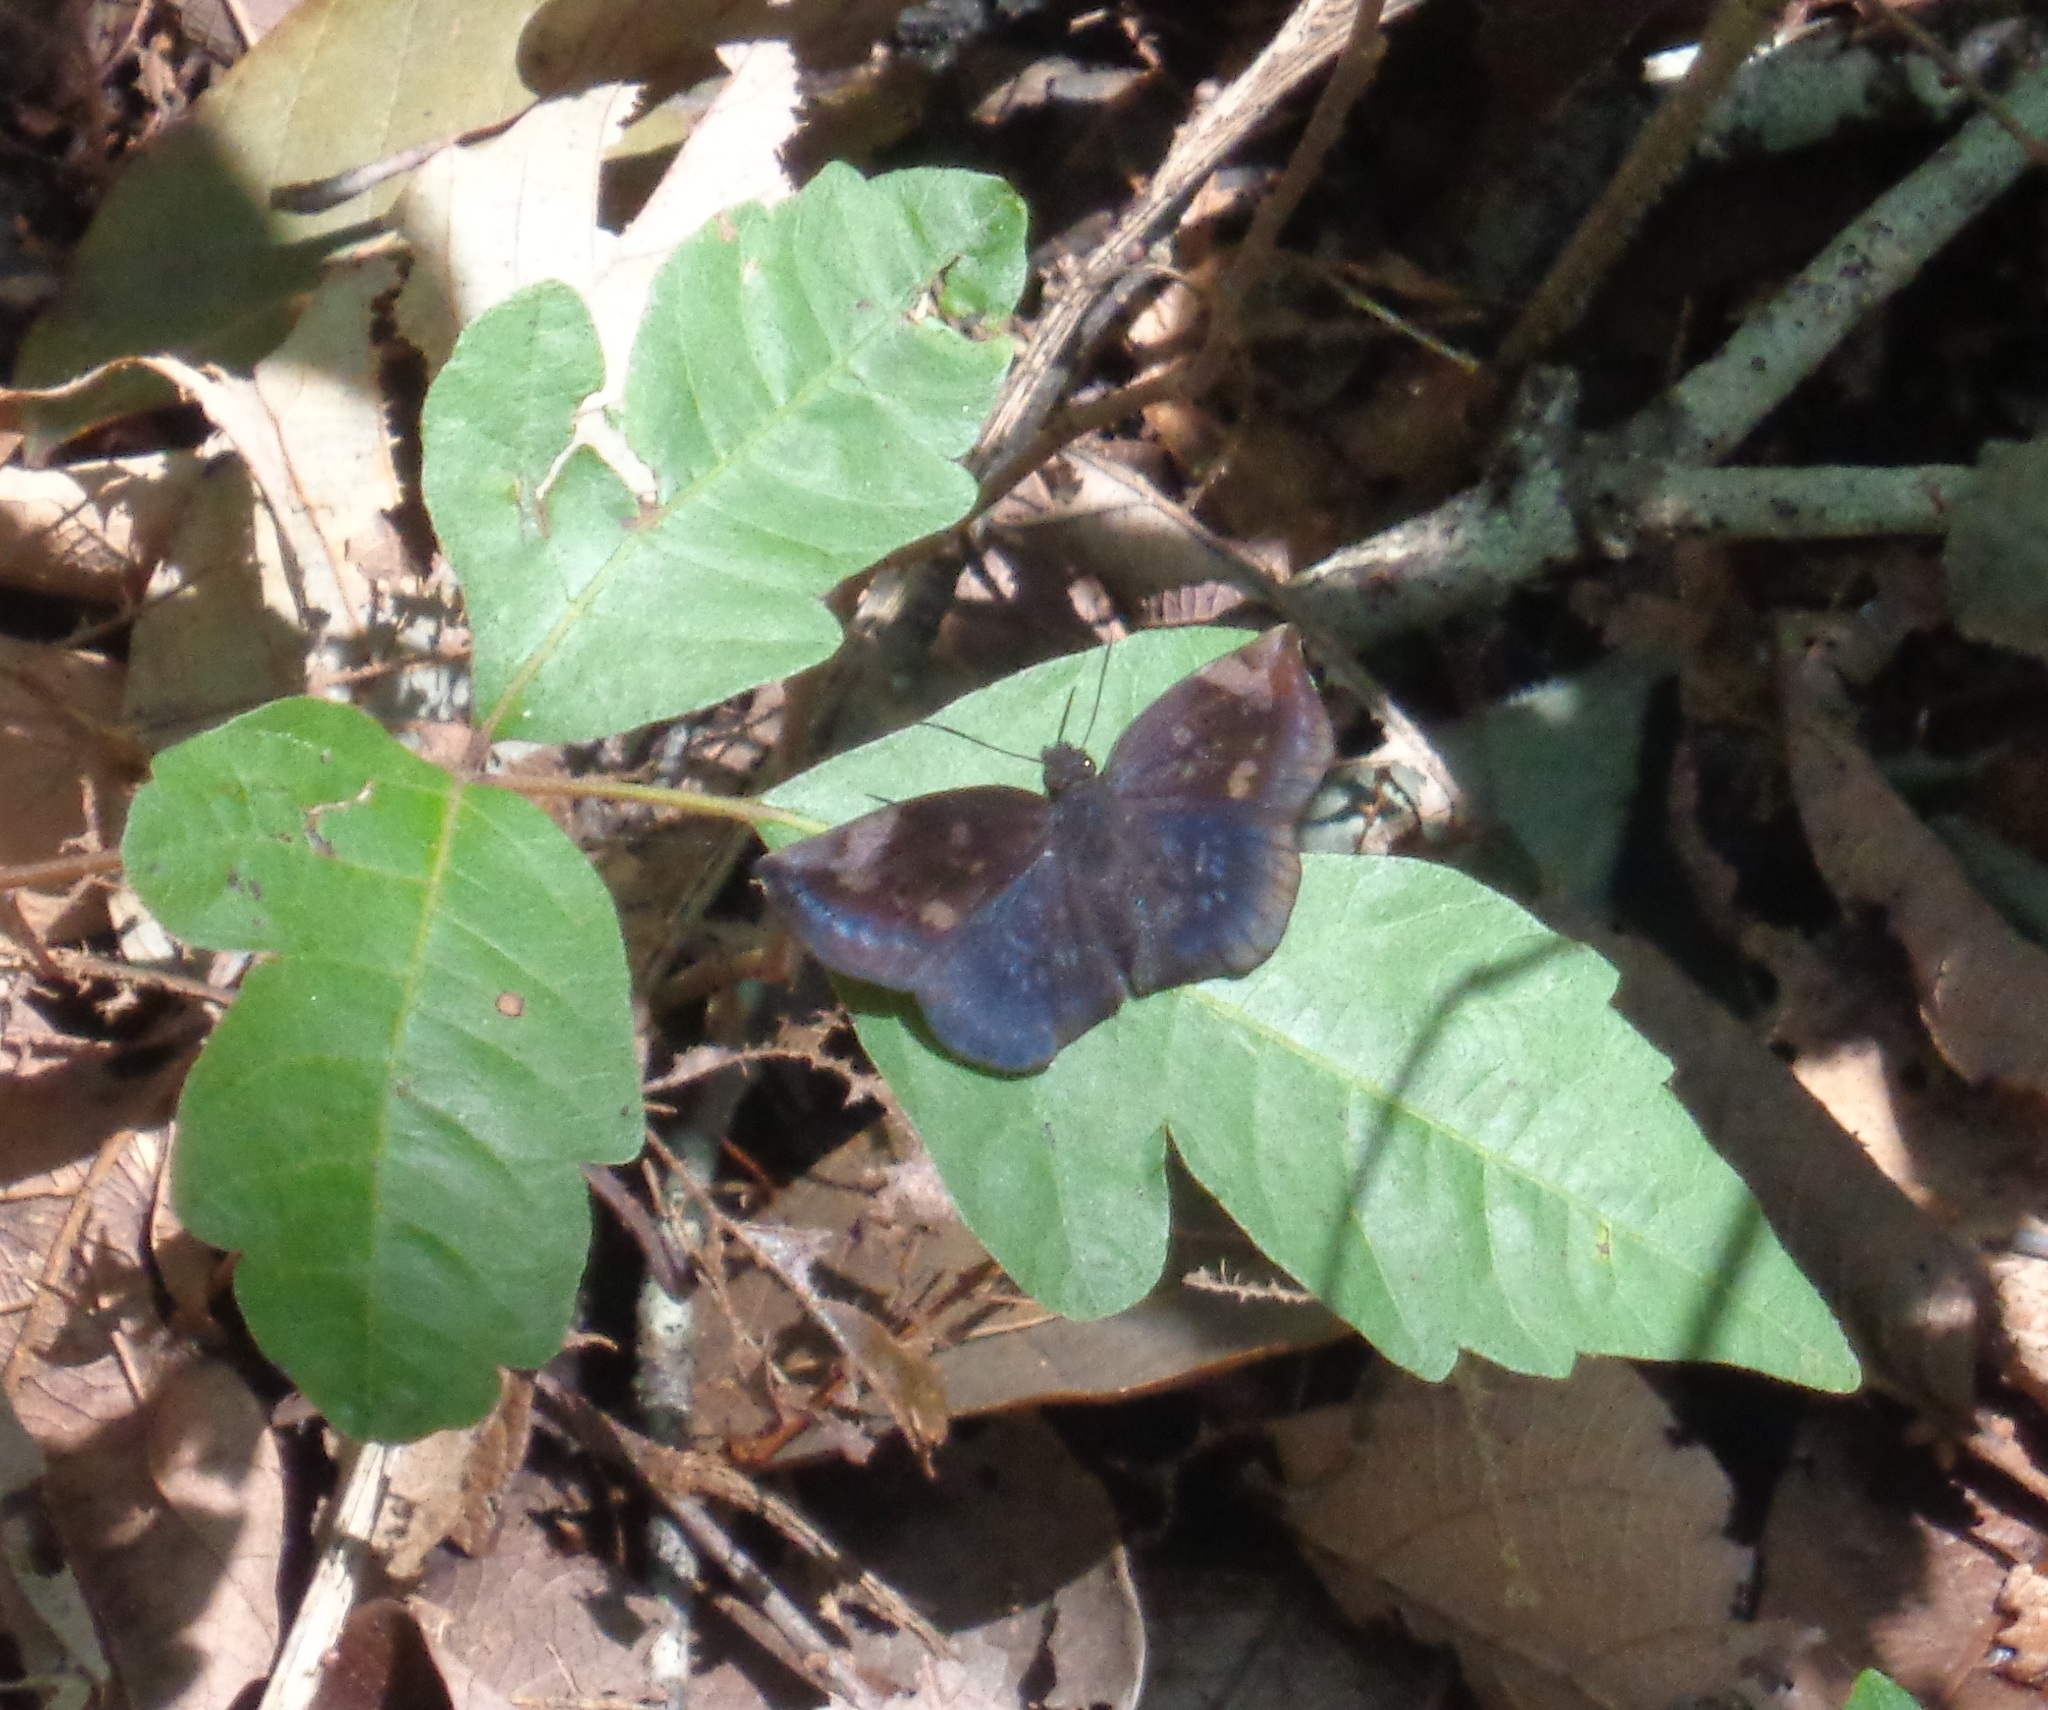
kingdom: Animalia
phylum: Arthropoda
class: Insecta
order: Lepidoptera
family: Hesperiidae
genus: Achlyodes
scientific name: Achlyodes thraso
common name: Sickle-winged skipper
